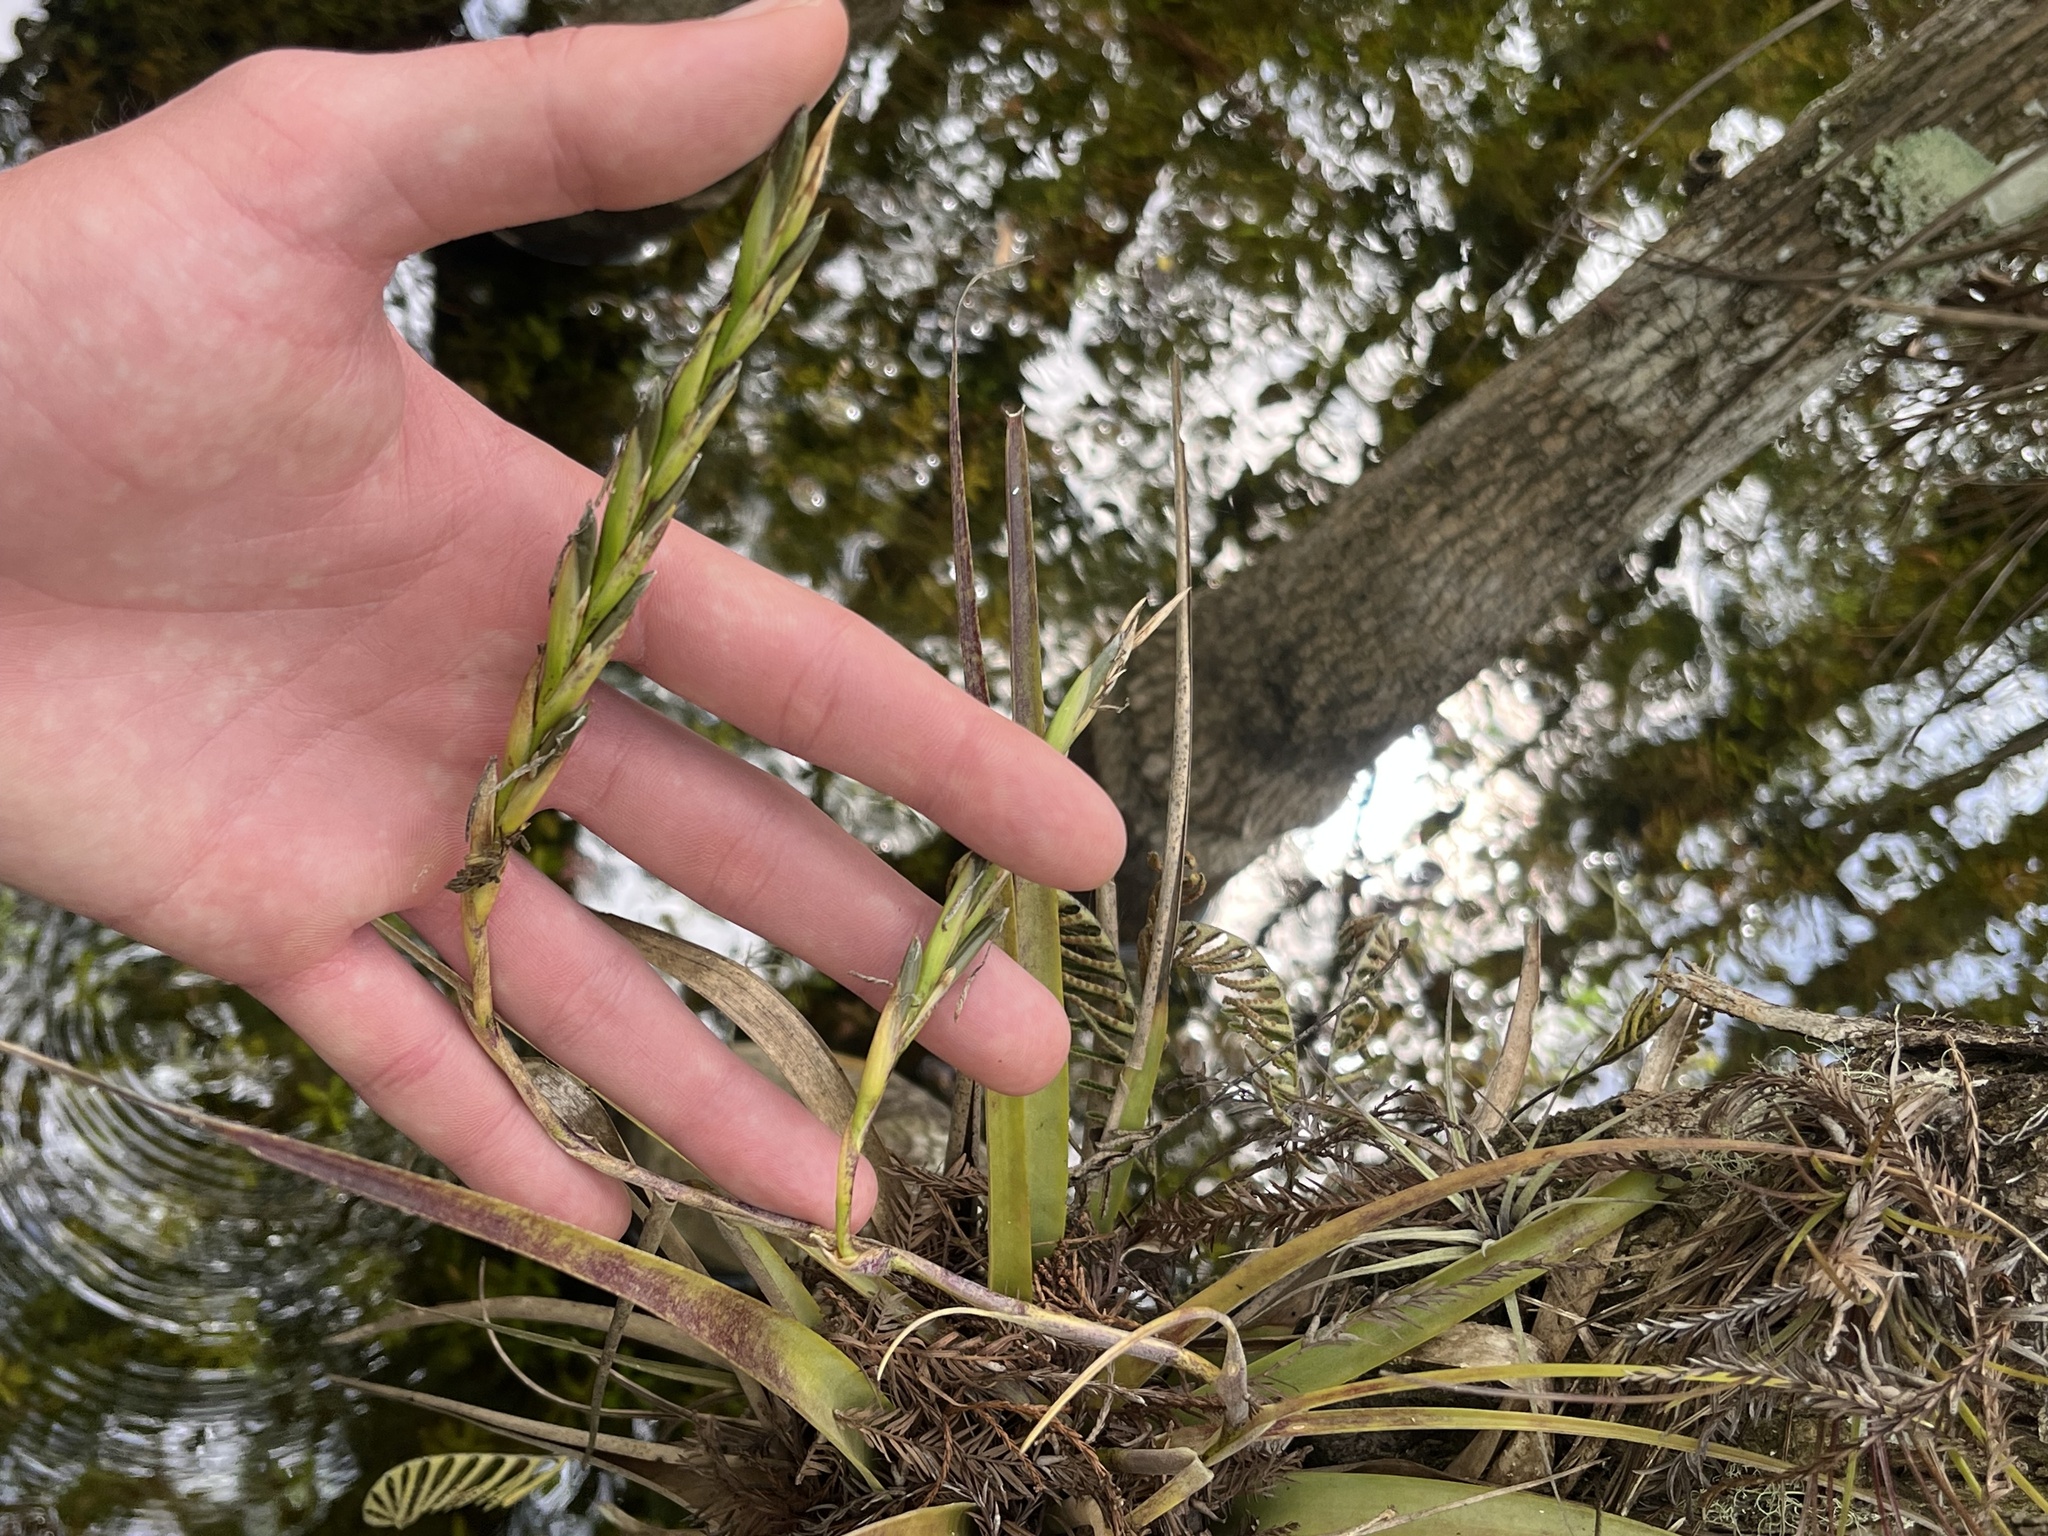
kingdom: Plantae
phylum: Tracheophyta
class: Liliopsida
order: Poales
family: Bromeliaceae
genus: Tillandsia
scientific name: Tillandsia variabilis
